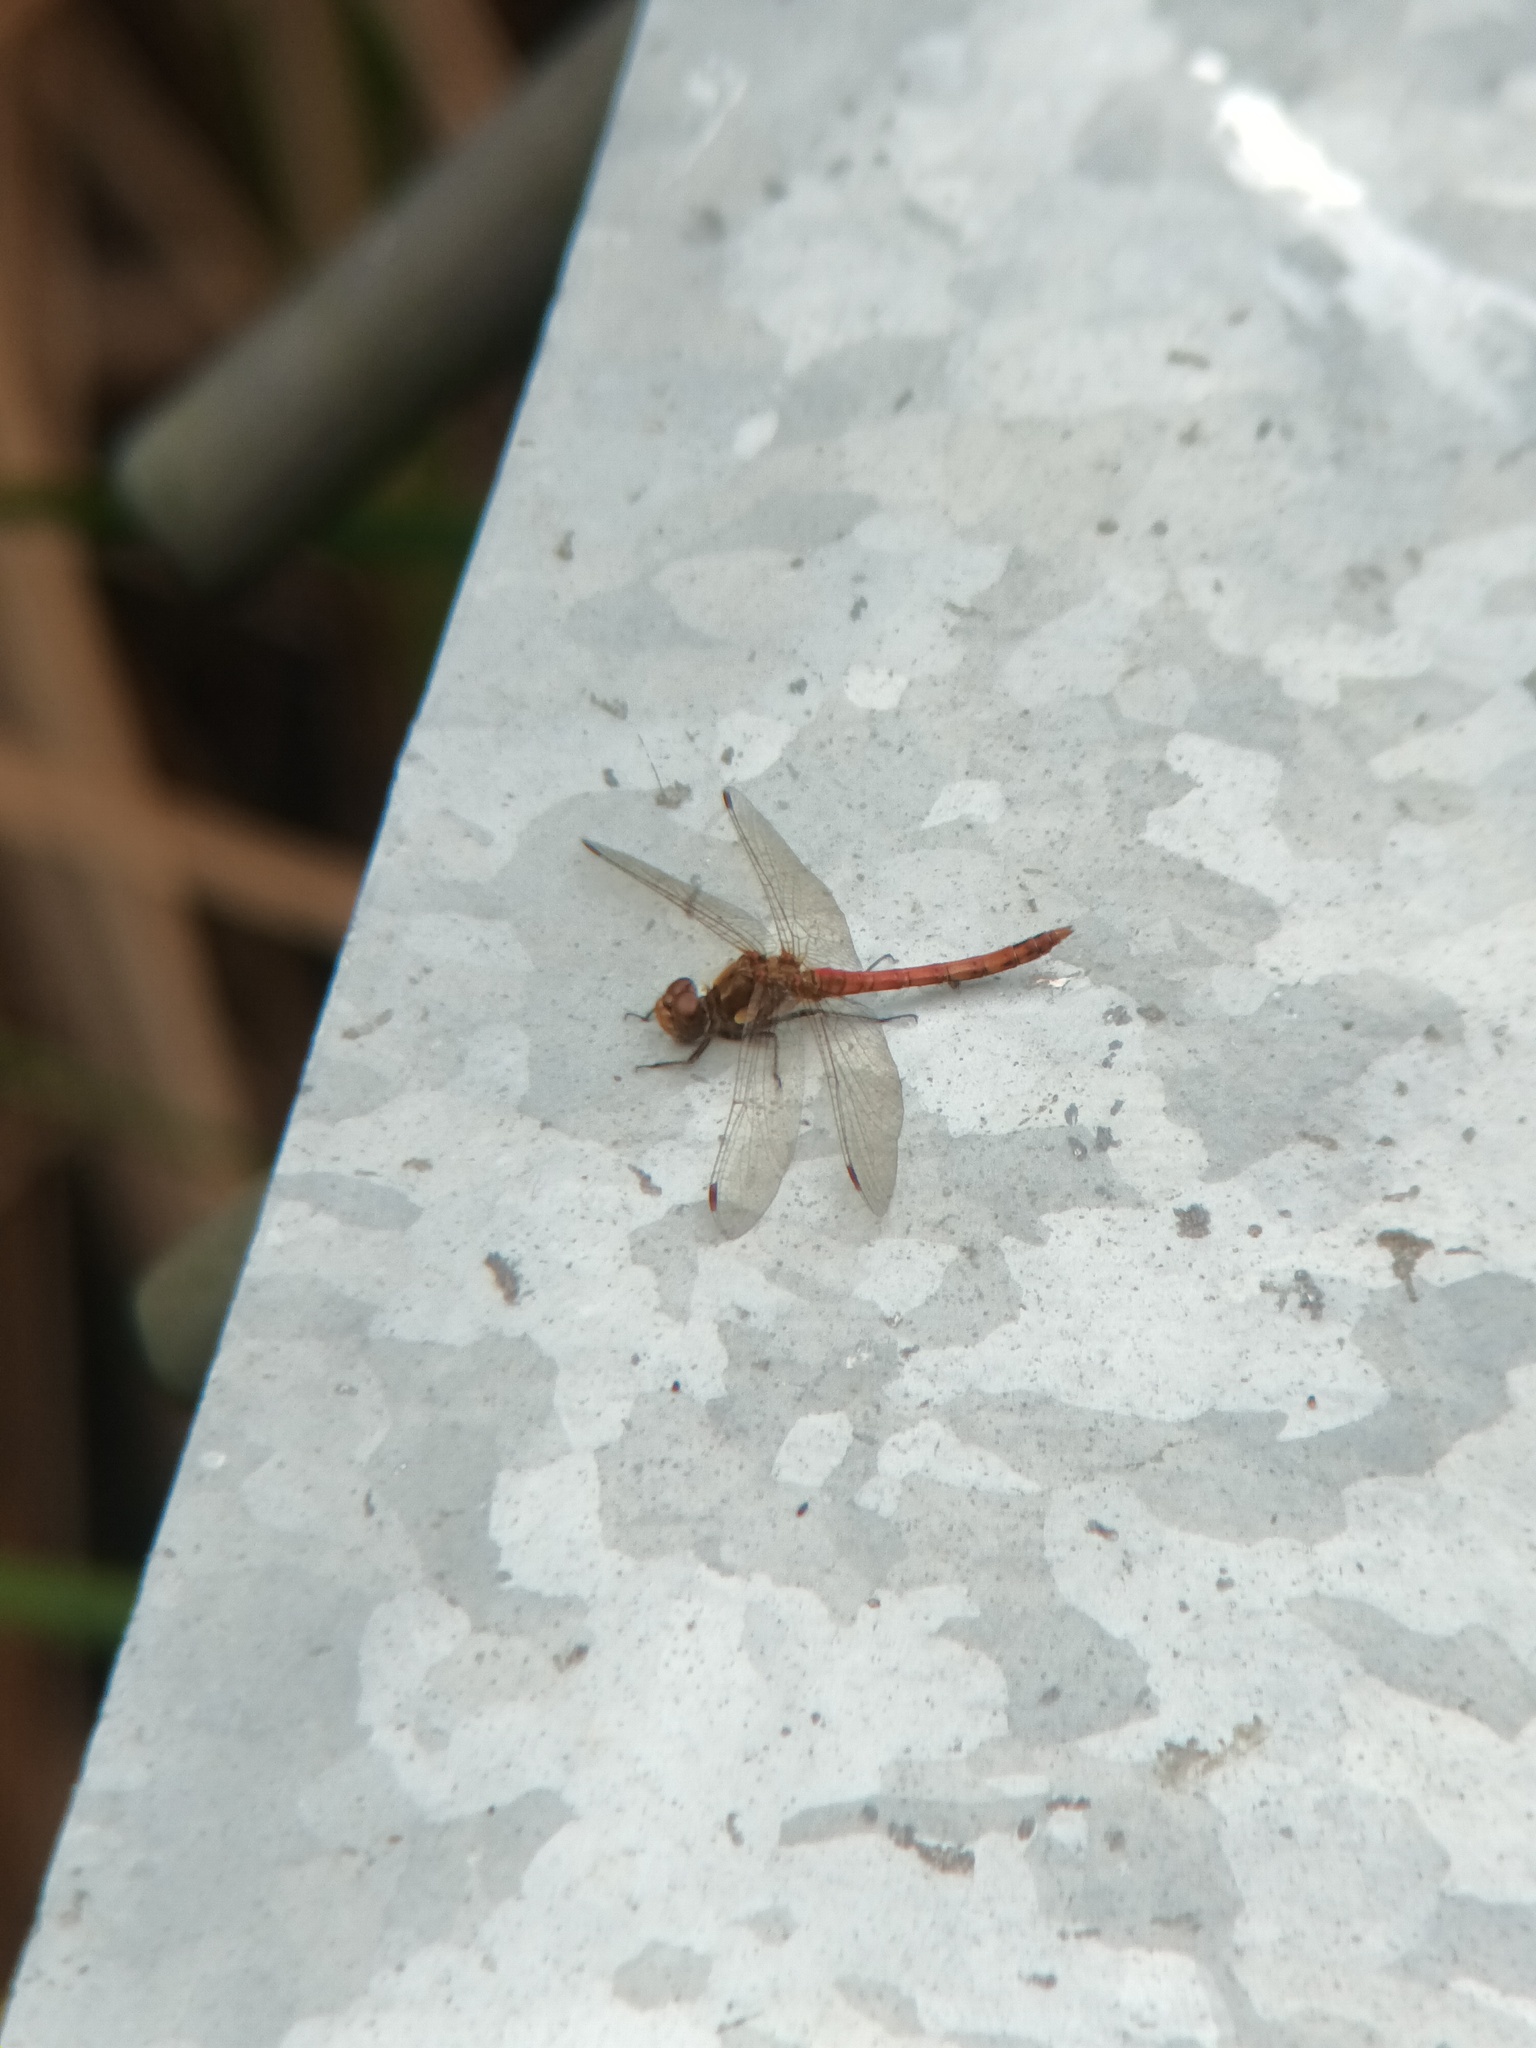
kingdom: Animalia
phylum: Arthropoda
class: Insecta
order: Odonata
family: Libellulidae
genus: Sympetrum
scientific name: Sympetrum striolatum
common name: Common darter
